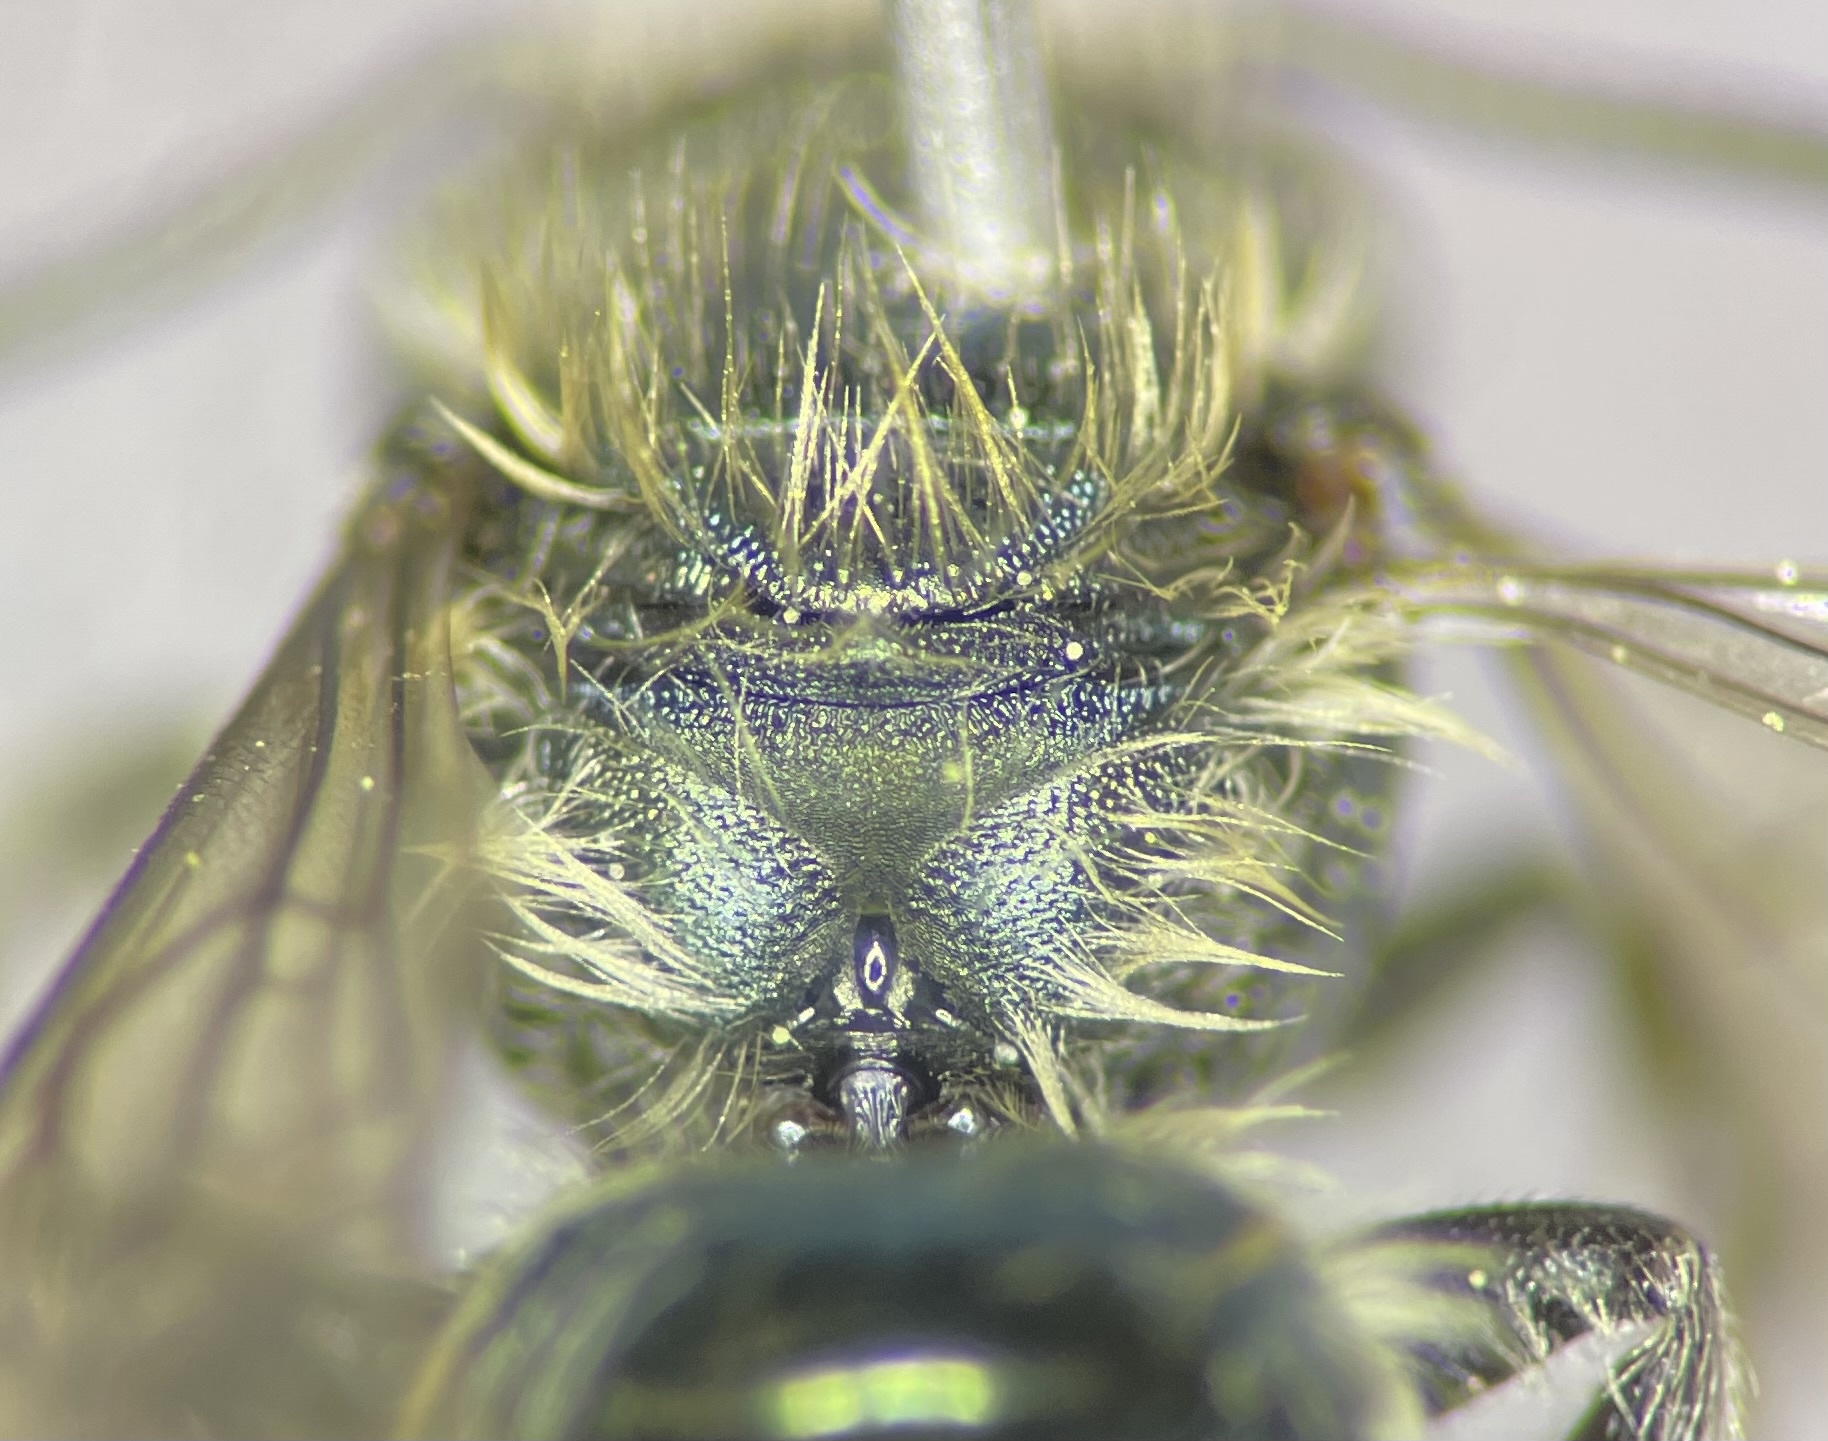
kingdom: Animalia
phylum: Arthropoda
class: Insecta
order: Hymenoptera
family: Megachilidae
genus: Osmia
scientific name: Osmia pumila
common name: Dwarf mason bee
